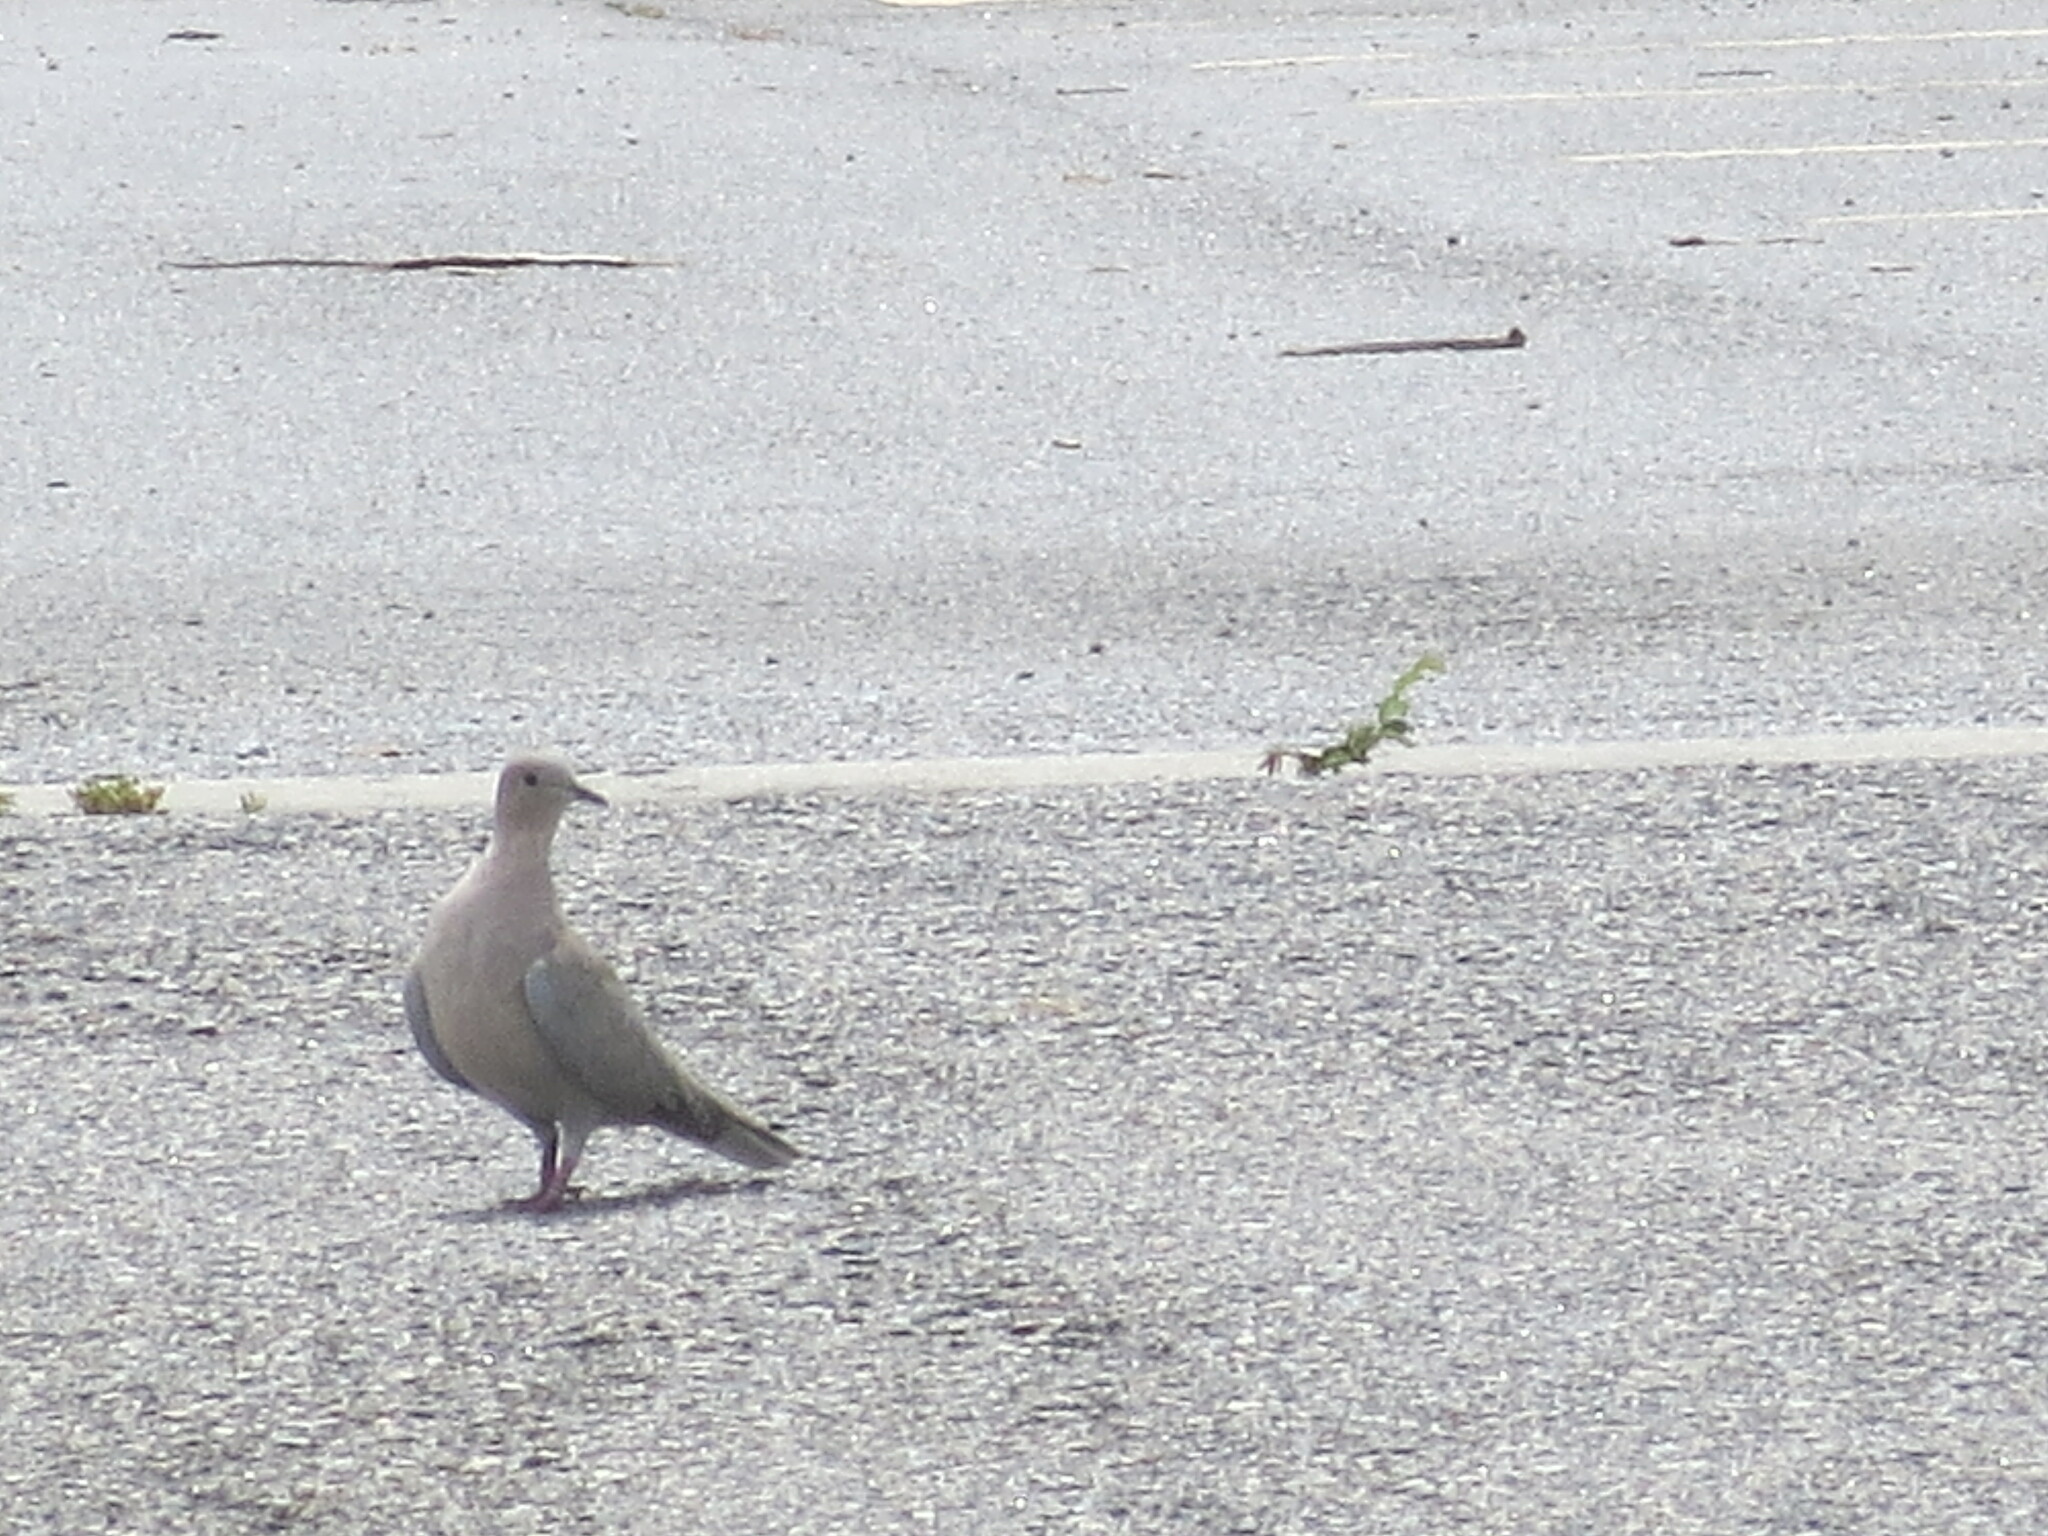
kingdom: Animalia
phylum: Chordata
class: Aves
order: Columbiformes
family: Columbidae
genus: Streptopelia
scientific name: Streptopelia decaocto
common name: Eurasian collared dove
